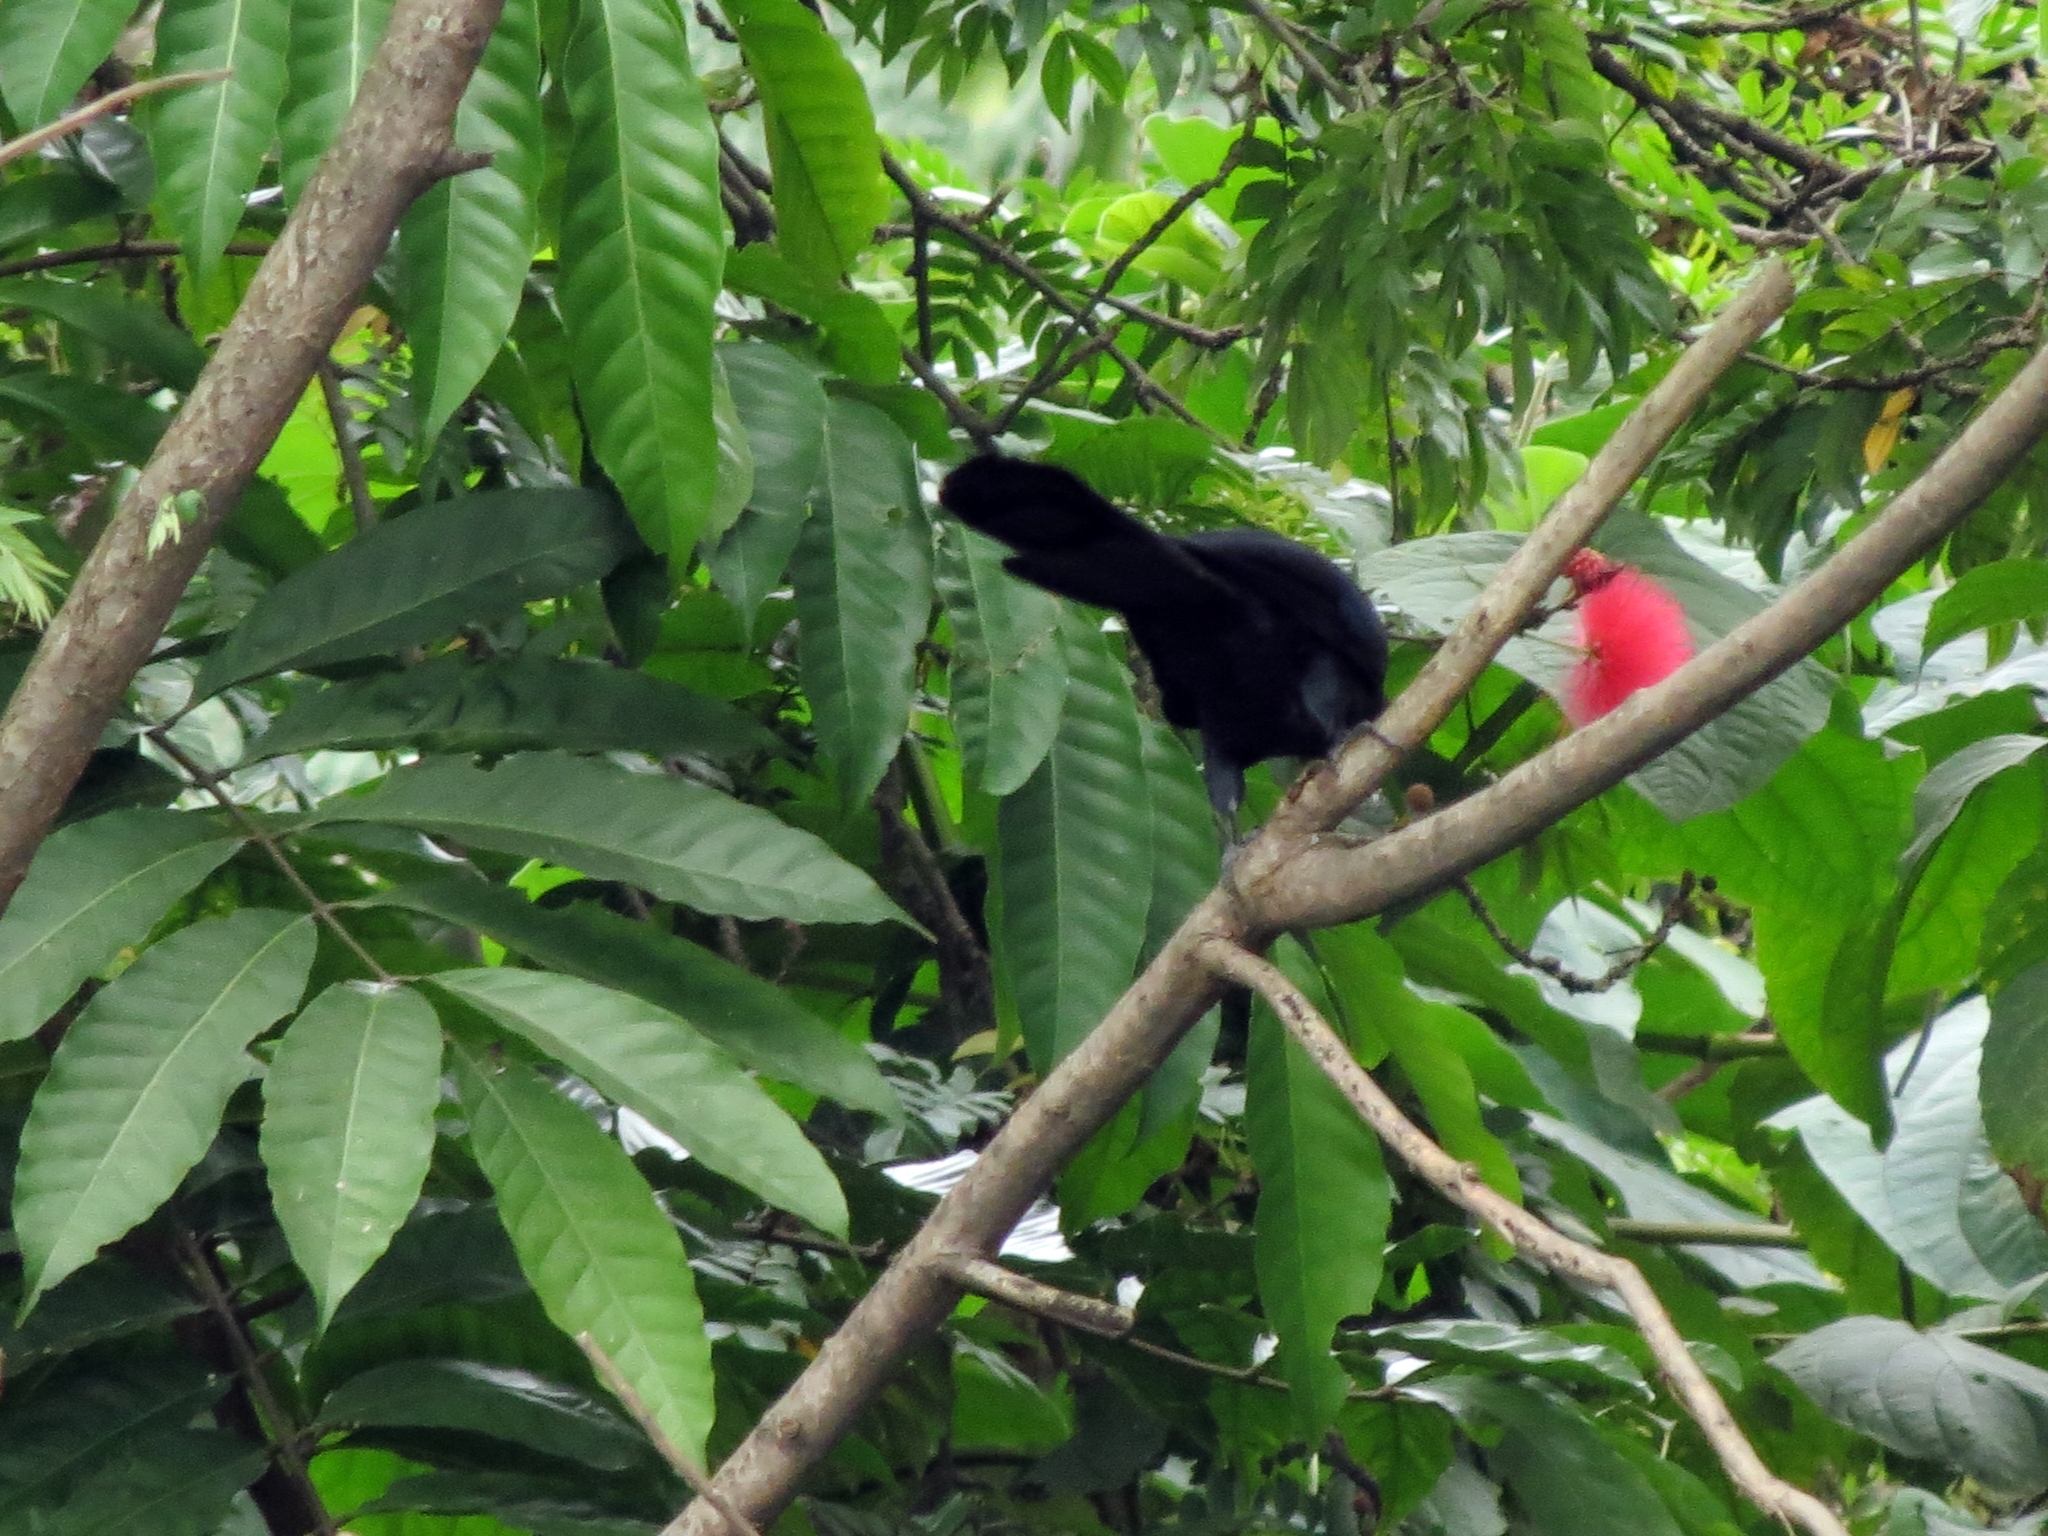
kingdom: Animalia
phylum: Chordata
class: Aves
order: Cuculiformes
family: Cuculidae
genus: Crotophaga
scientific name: Crotophaga major
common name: Greater ani
